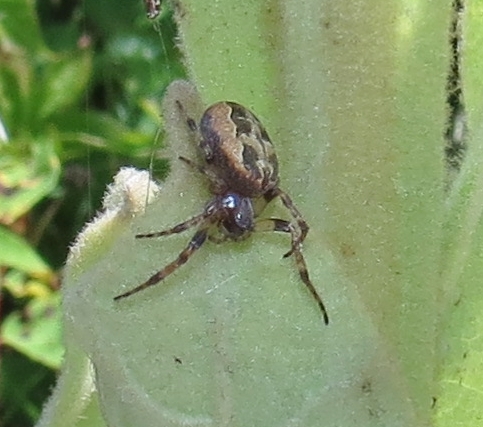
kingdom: Animalia
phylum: Arthropoda
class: Arachnida
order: Araneae
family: Araneidae
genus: Larinioides
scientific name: Larinioides cornutus
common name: Furrow orbweaver
